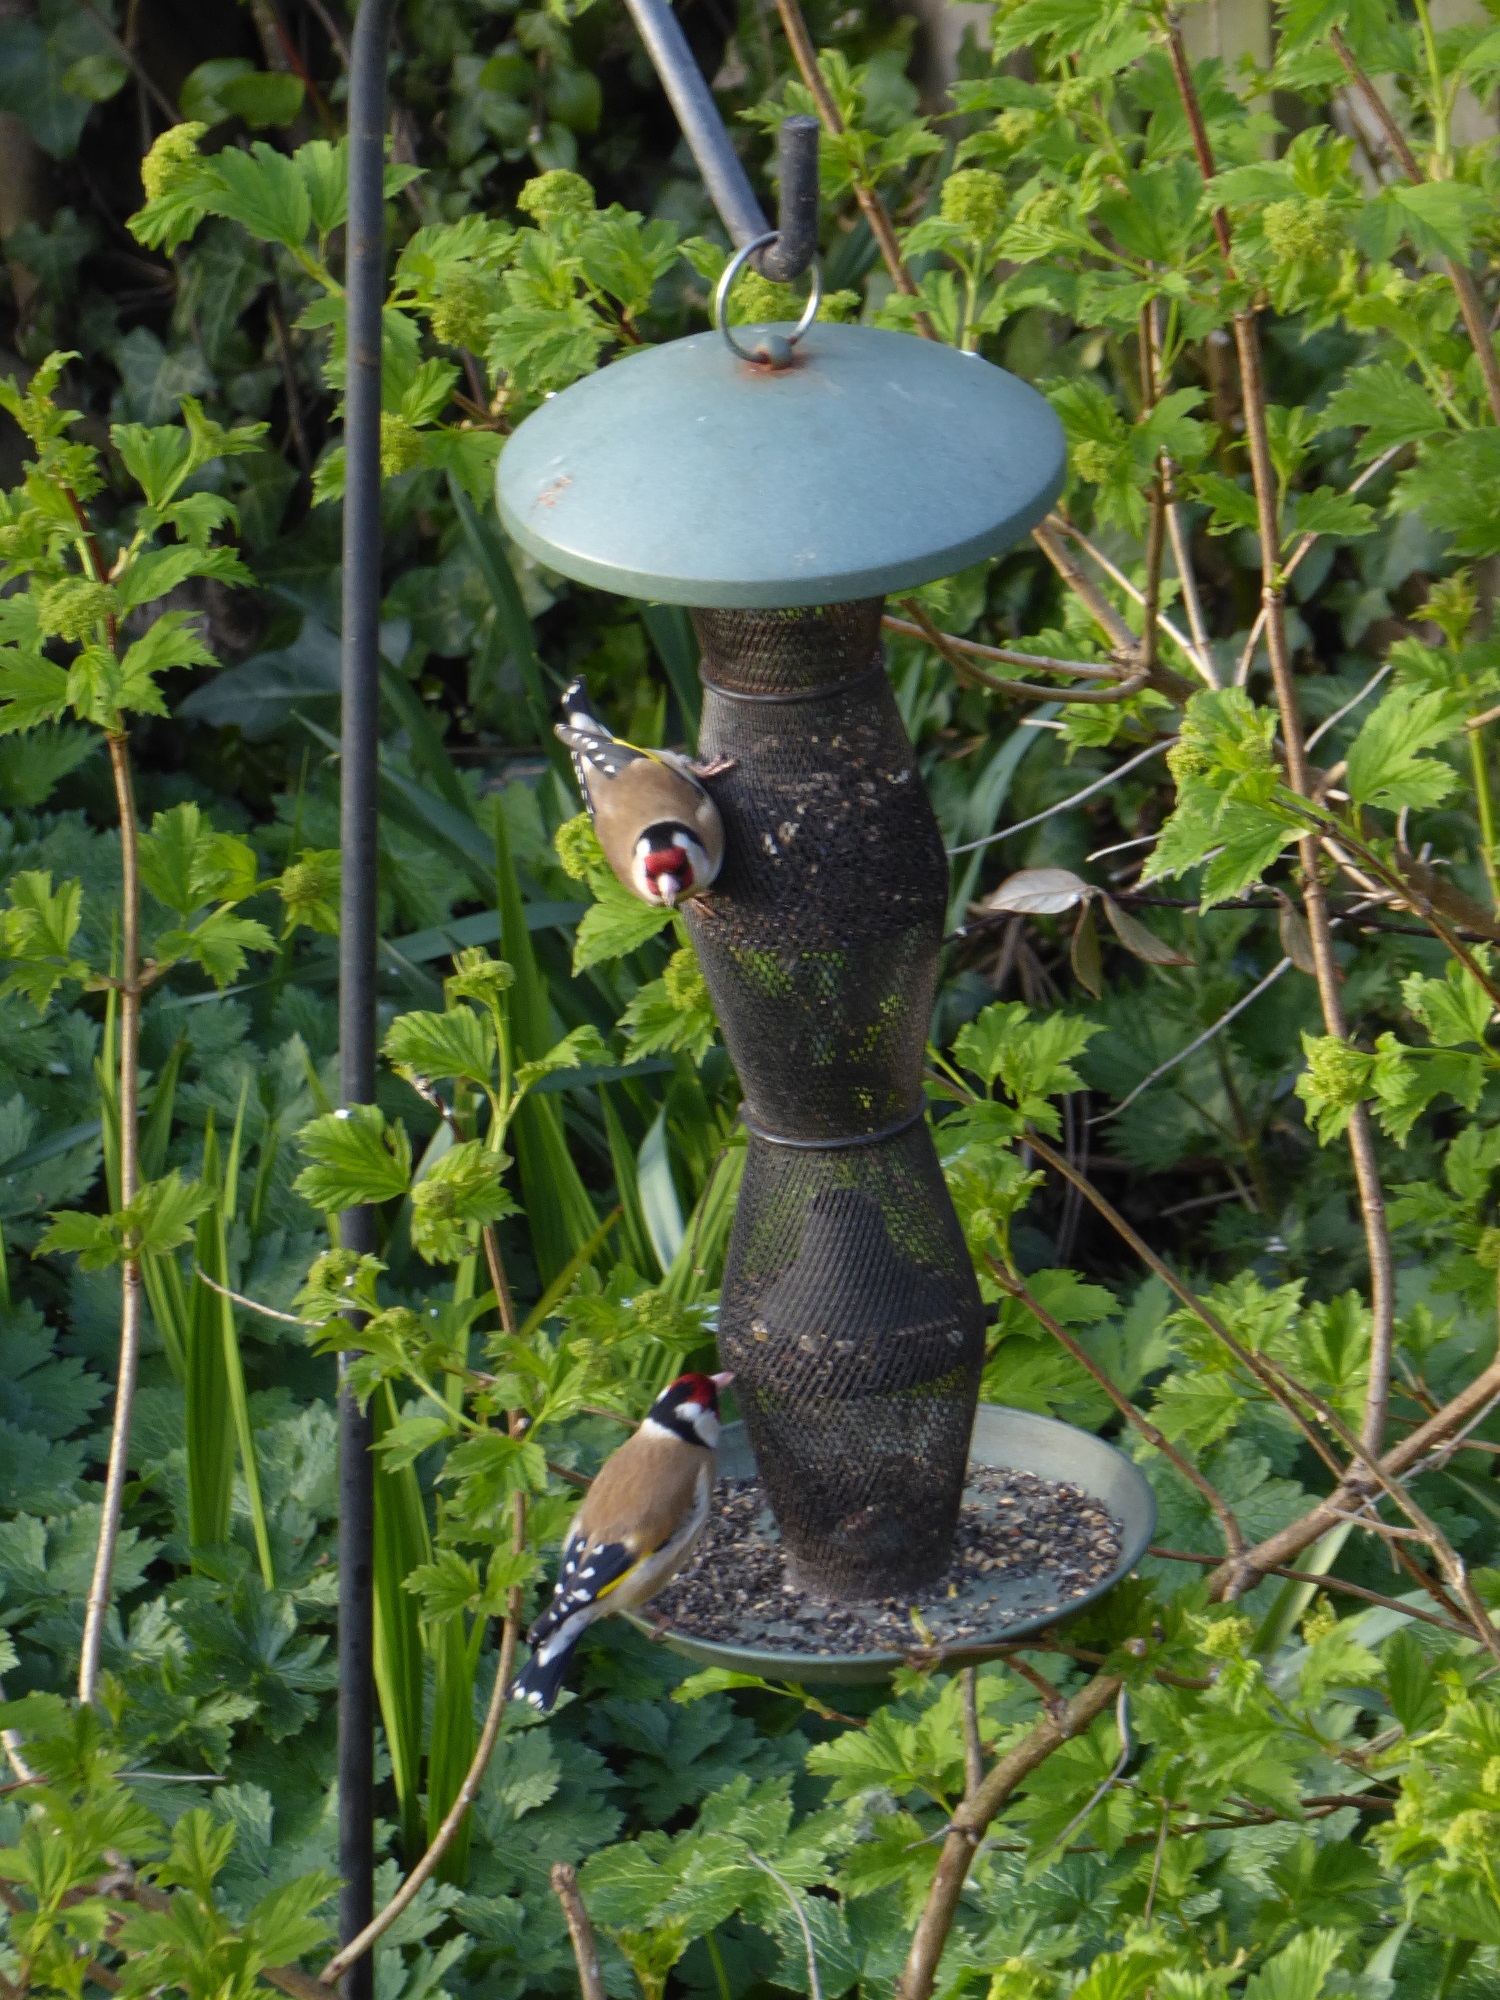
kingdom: Animalia
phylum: Chordata
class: Aves
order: Passeriformes
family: Fringillidae
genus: Carduelis
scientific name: Carduelis carduelis
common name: European goldfinch
